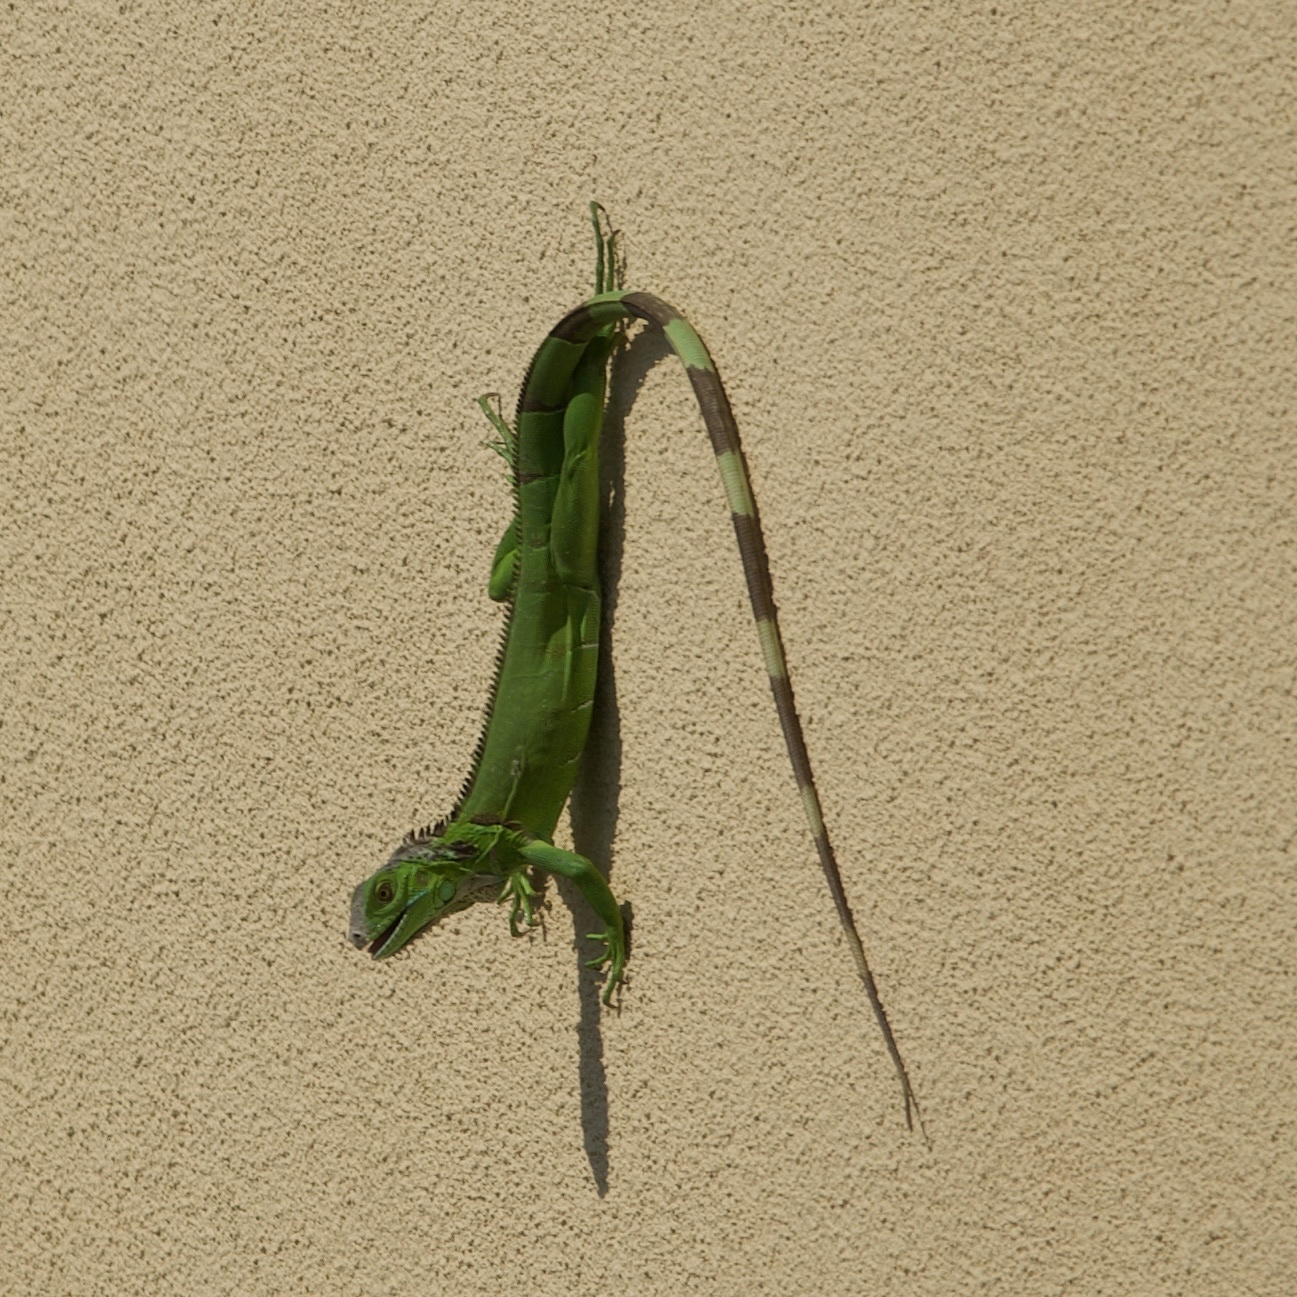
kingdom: Animalia
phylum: Chordata
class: Squamata
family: Iguanidae
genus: Iguana
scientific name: Iguana iguana
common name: Green iguana
